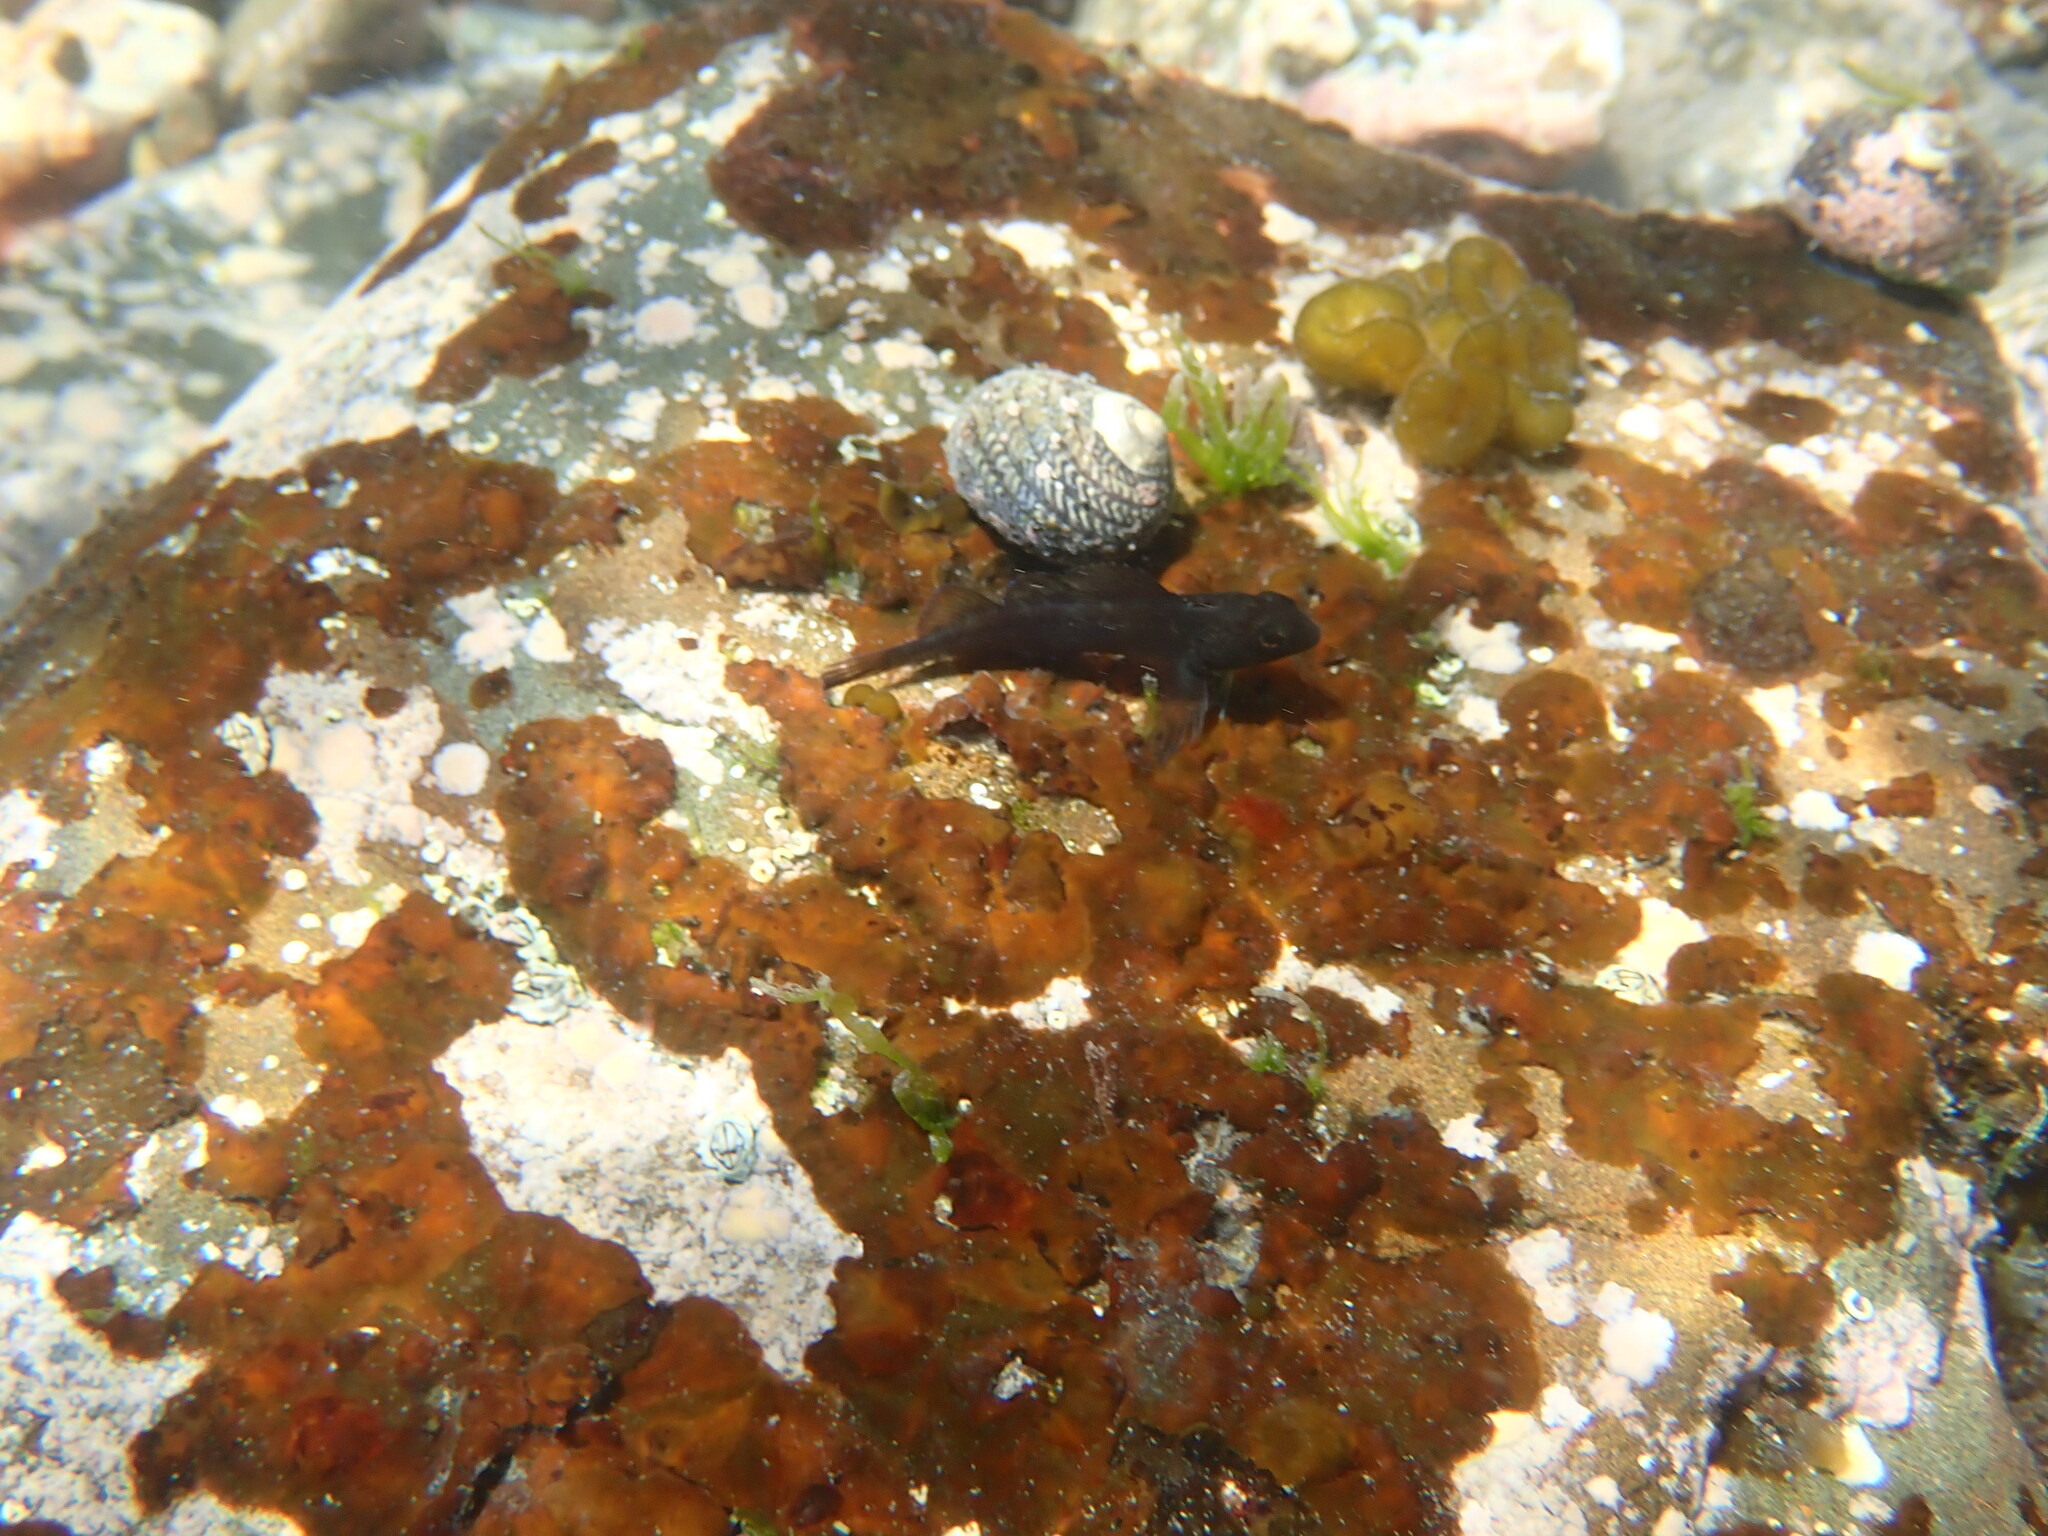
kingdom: Animalia
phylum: Chordata
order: Perciformes
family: Tripterygiidae
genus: Forsterygion
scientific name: Forsterygion lapillum
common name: Common triplefin
